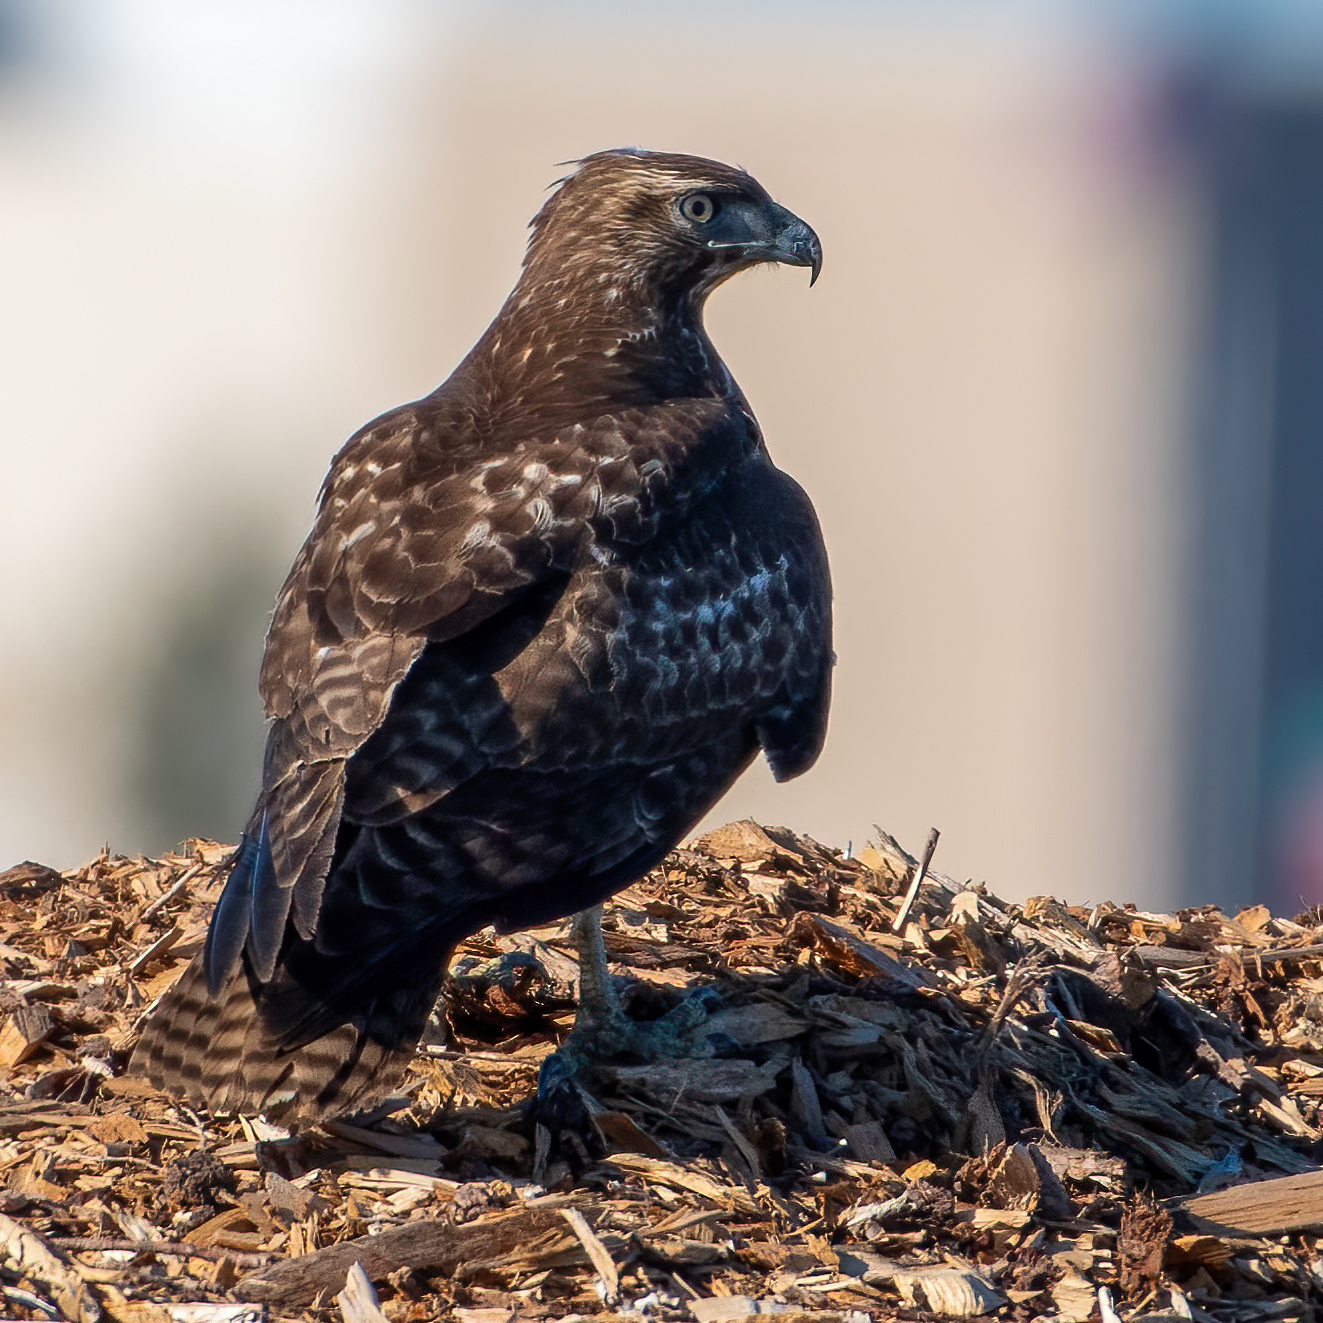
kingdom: Animalia
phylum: Chordata
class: Aves
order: Accipitriformes
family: Accipitridae
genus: Buteo
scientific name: Buteo jamaicensis
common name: Red-tailed hawk
